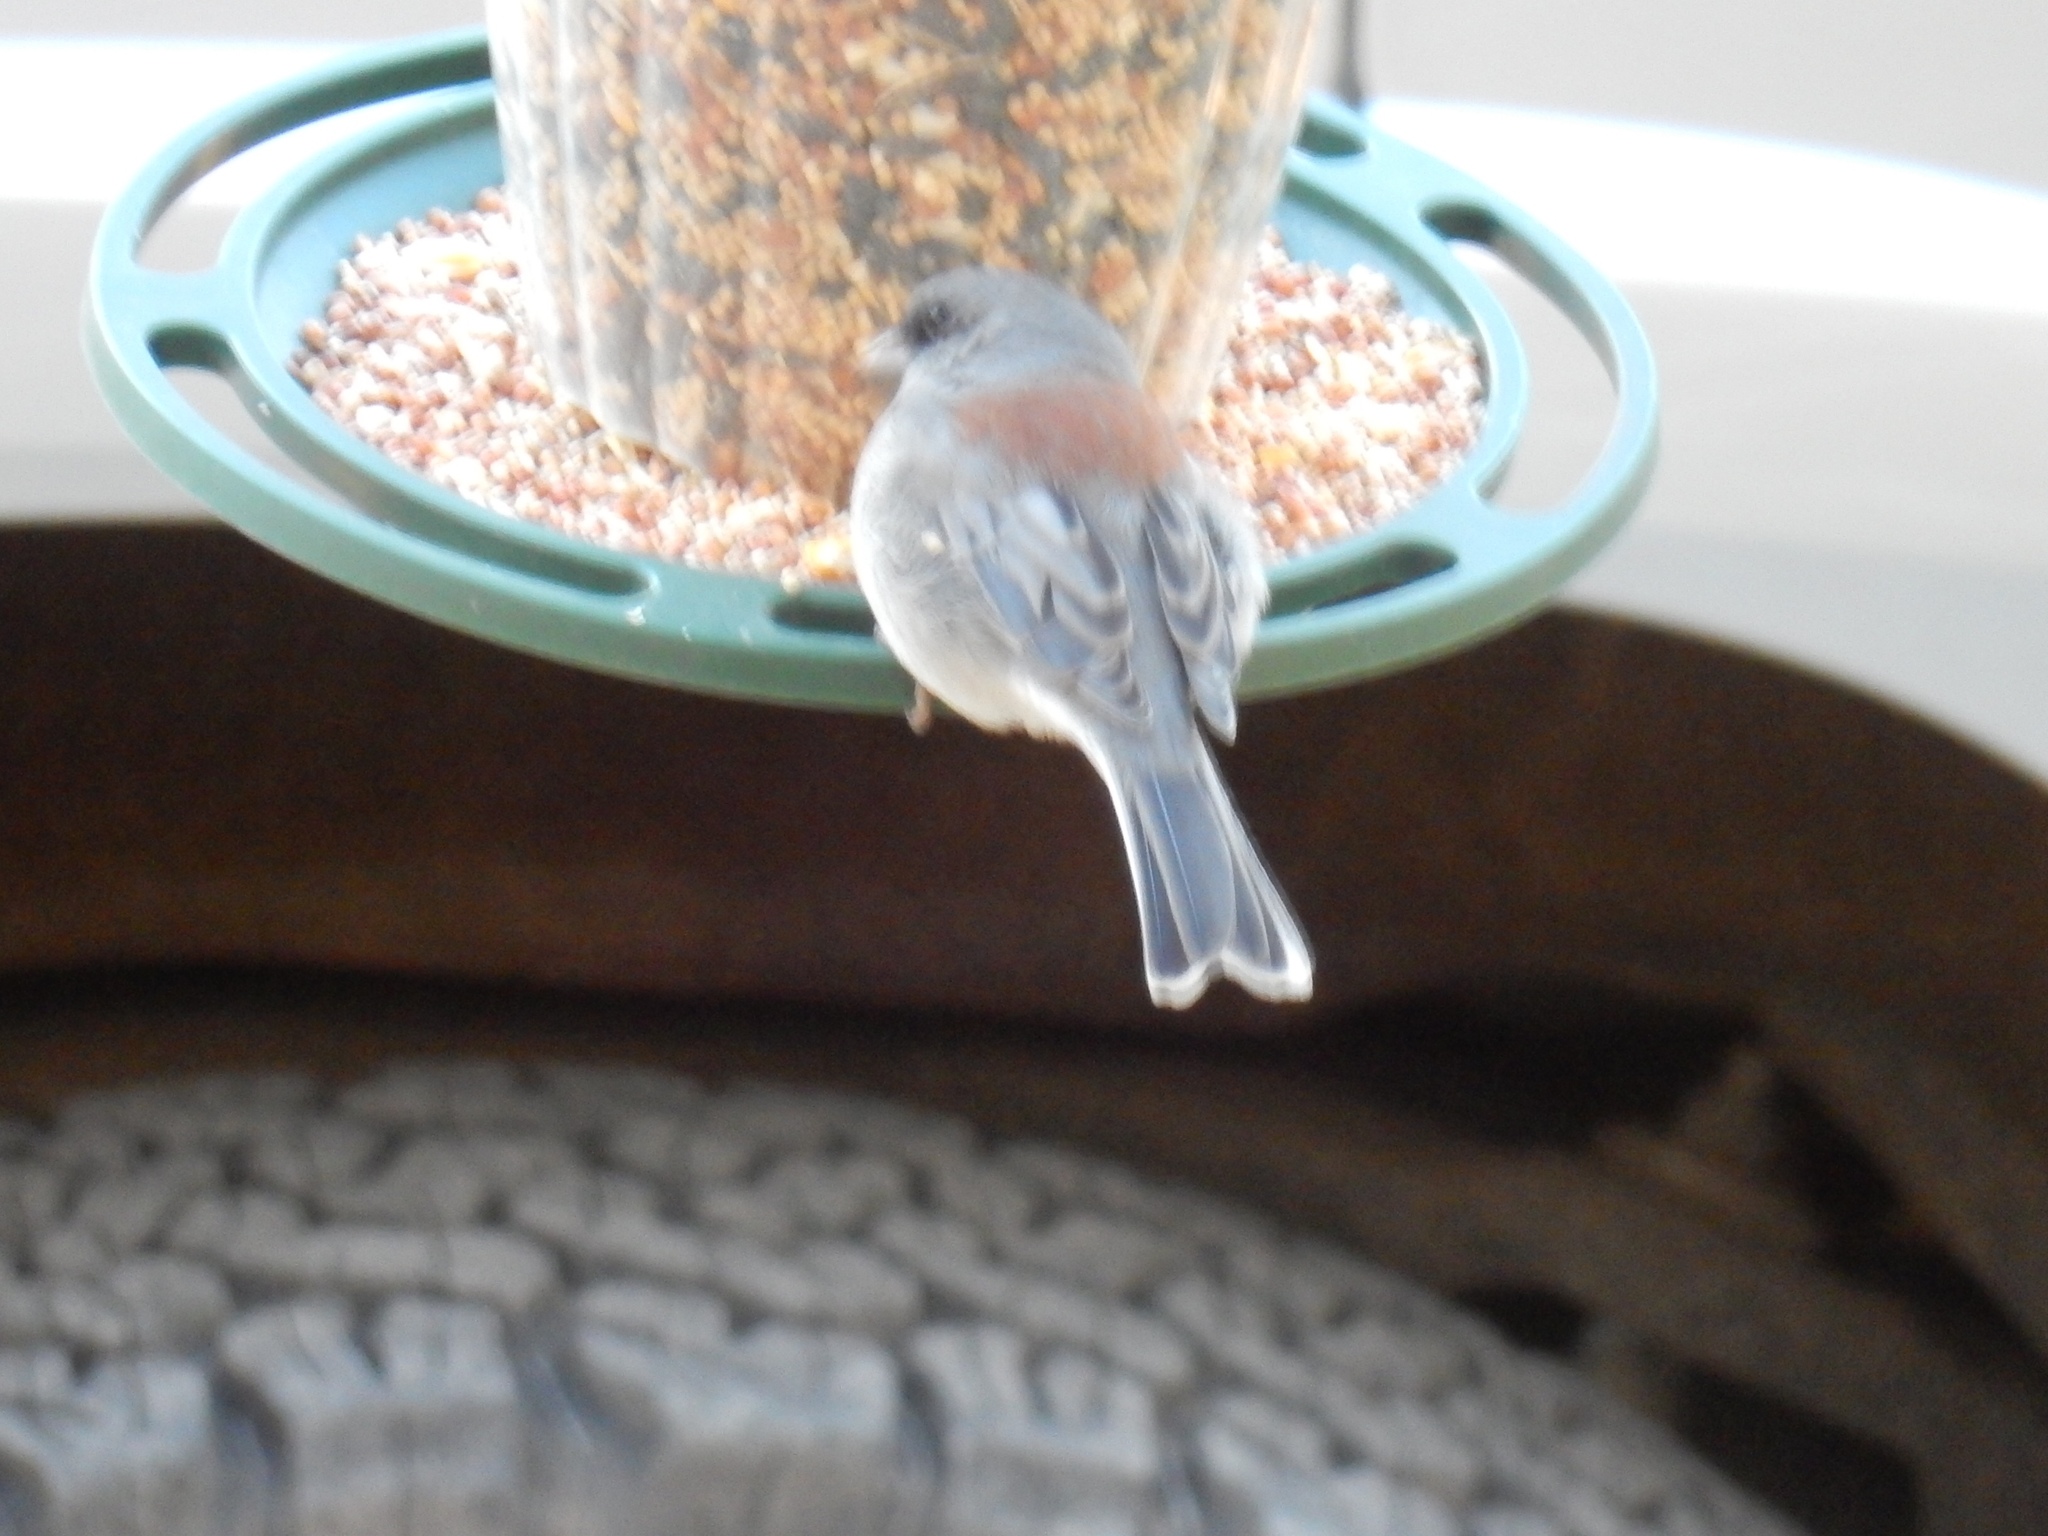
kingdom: Animalia
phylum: Chordata
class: Aves
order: Passeriformes
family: Passerellidae
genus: Junco
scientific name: Junco hyemalis
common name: Dark-eyed junco
